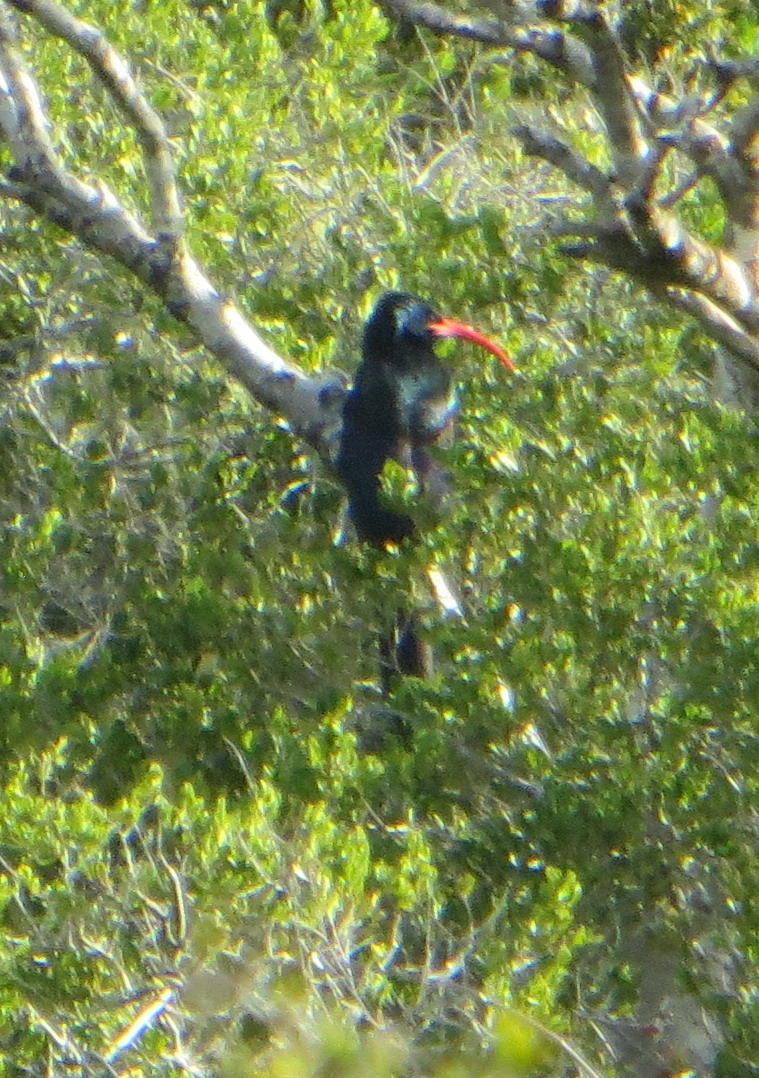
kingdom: Animalia
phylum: Chordata
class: Aves
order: Bucerotiformes
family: Phoeniculidae
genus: Phoeniculus
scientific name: Phoeniculus purpureus
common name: Green woodhoopoe
